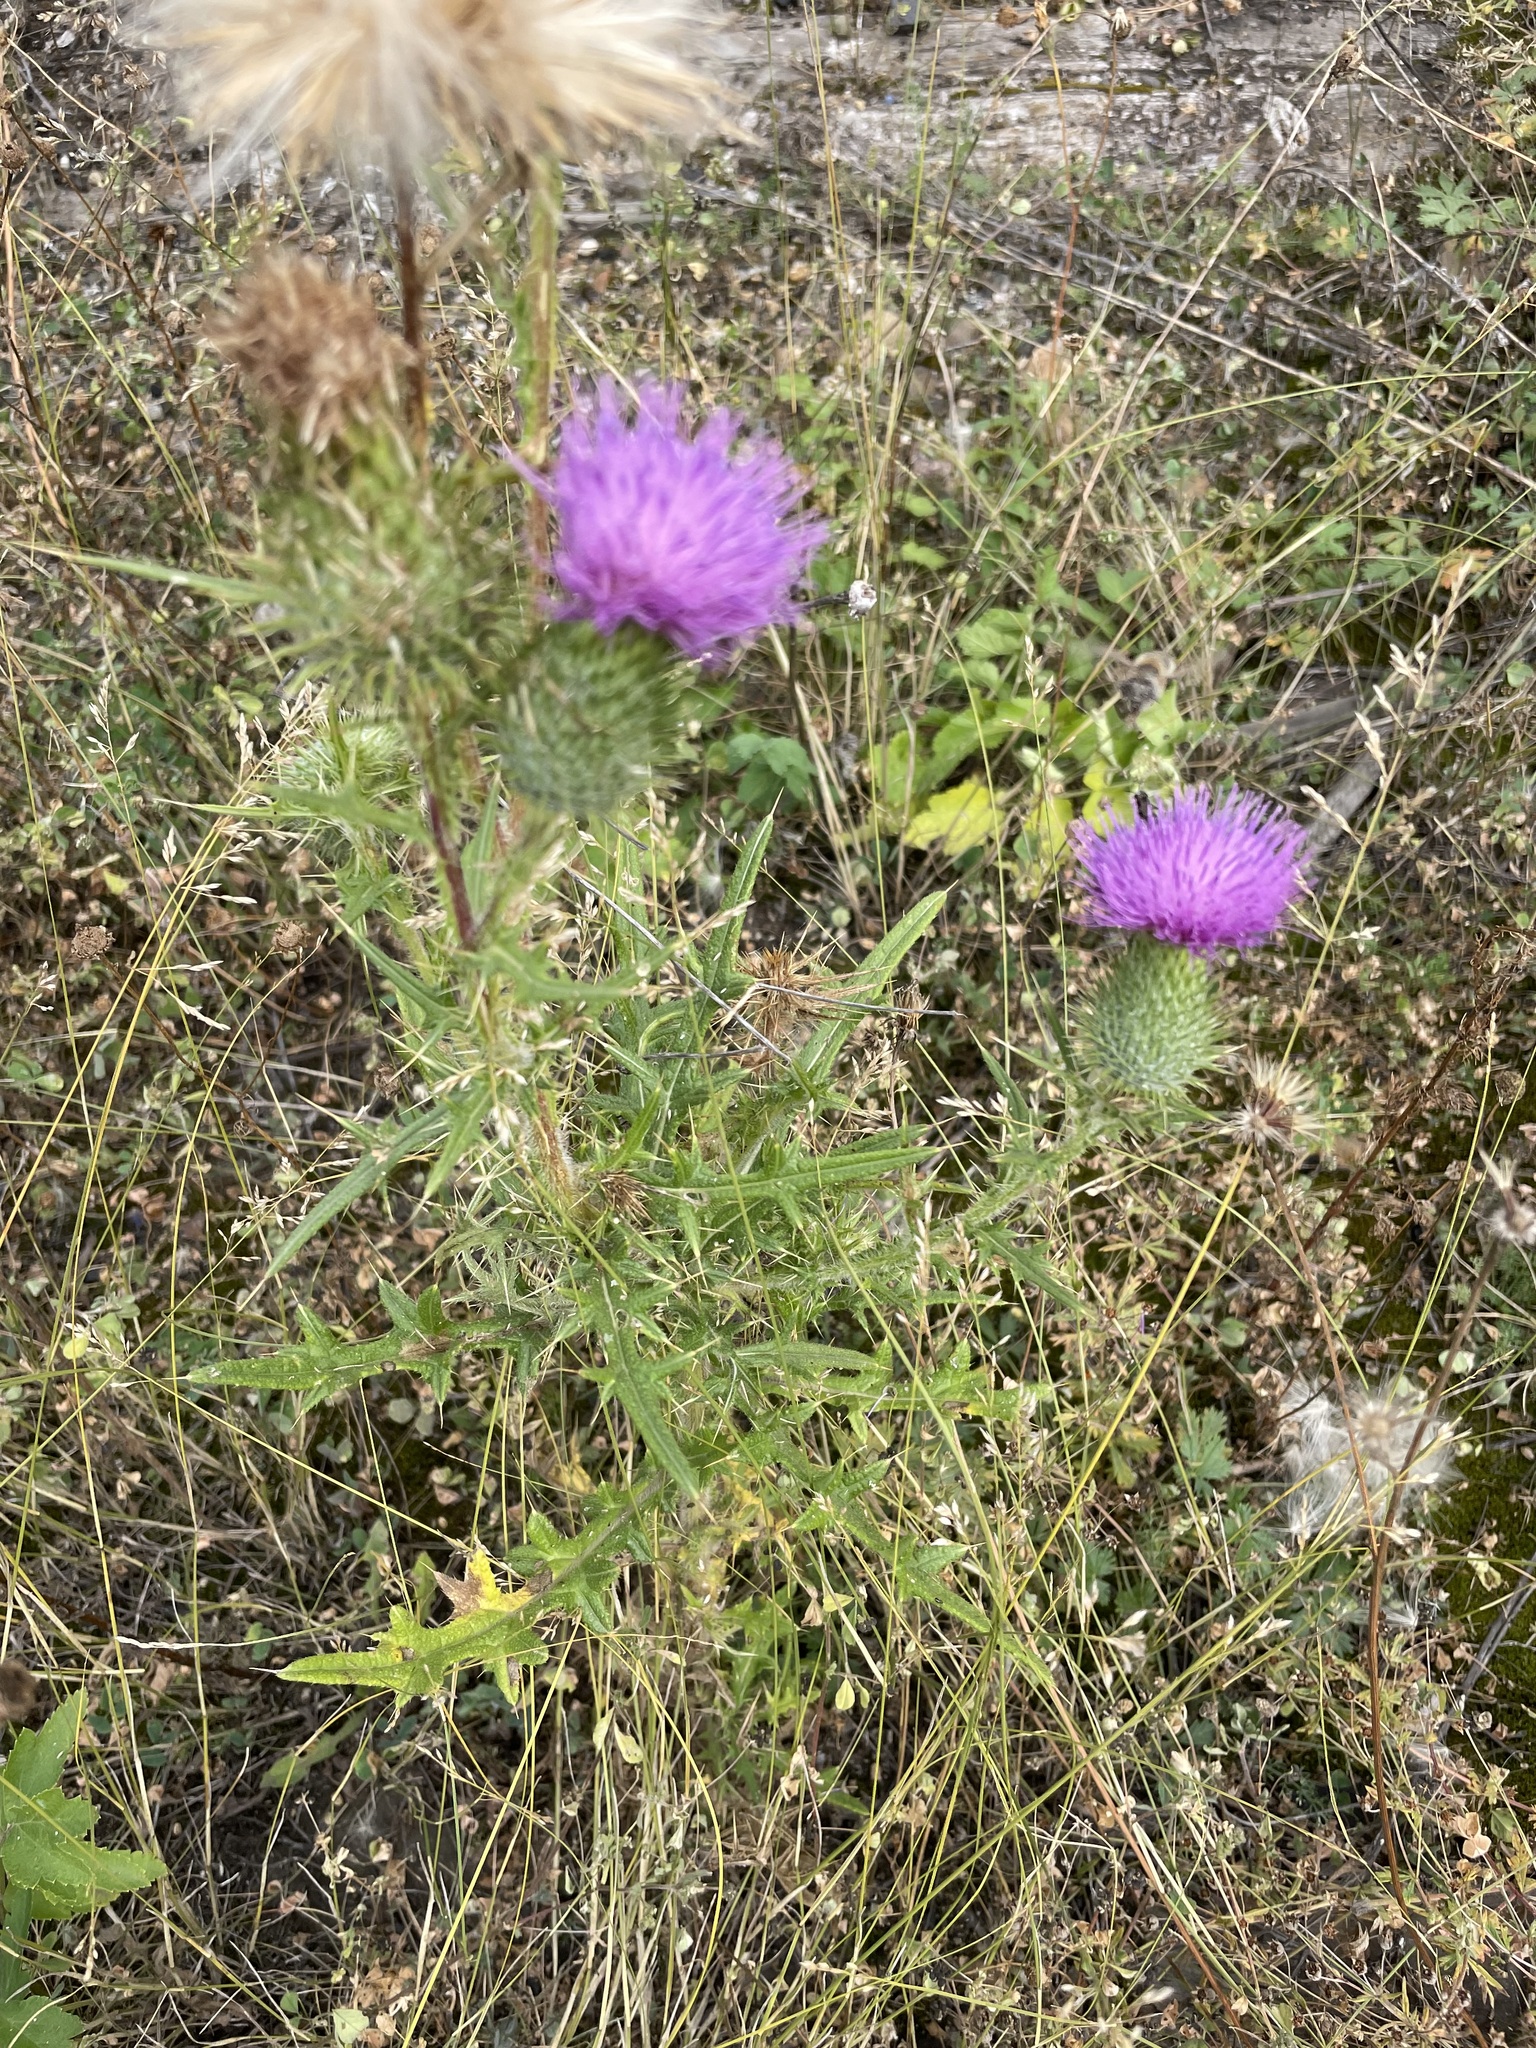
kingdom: Plantae
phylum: Tracheophyta
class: Magnoliopsida
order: Asterales
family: Asteraceae
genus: Cirsium
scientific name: Cirsium vulgare
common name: Bull thistle
